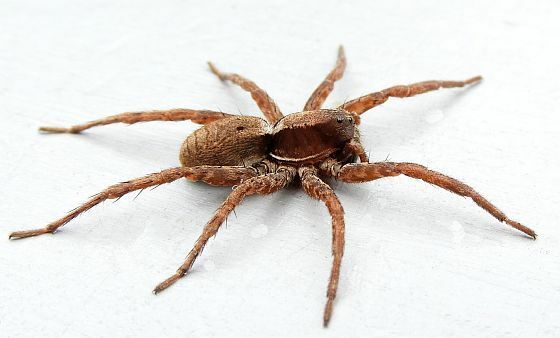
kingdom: Animalia
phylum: Arthropoda
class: Arachnida
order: Araneae
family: Lycosidae
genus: Hogna
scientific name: Hogna frondicola
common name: Forest wolf spider
